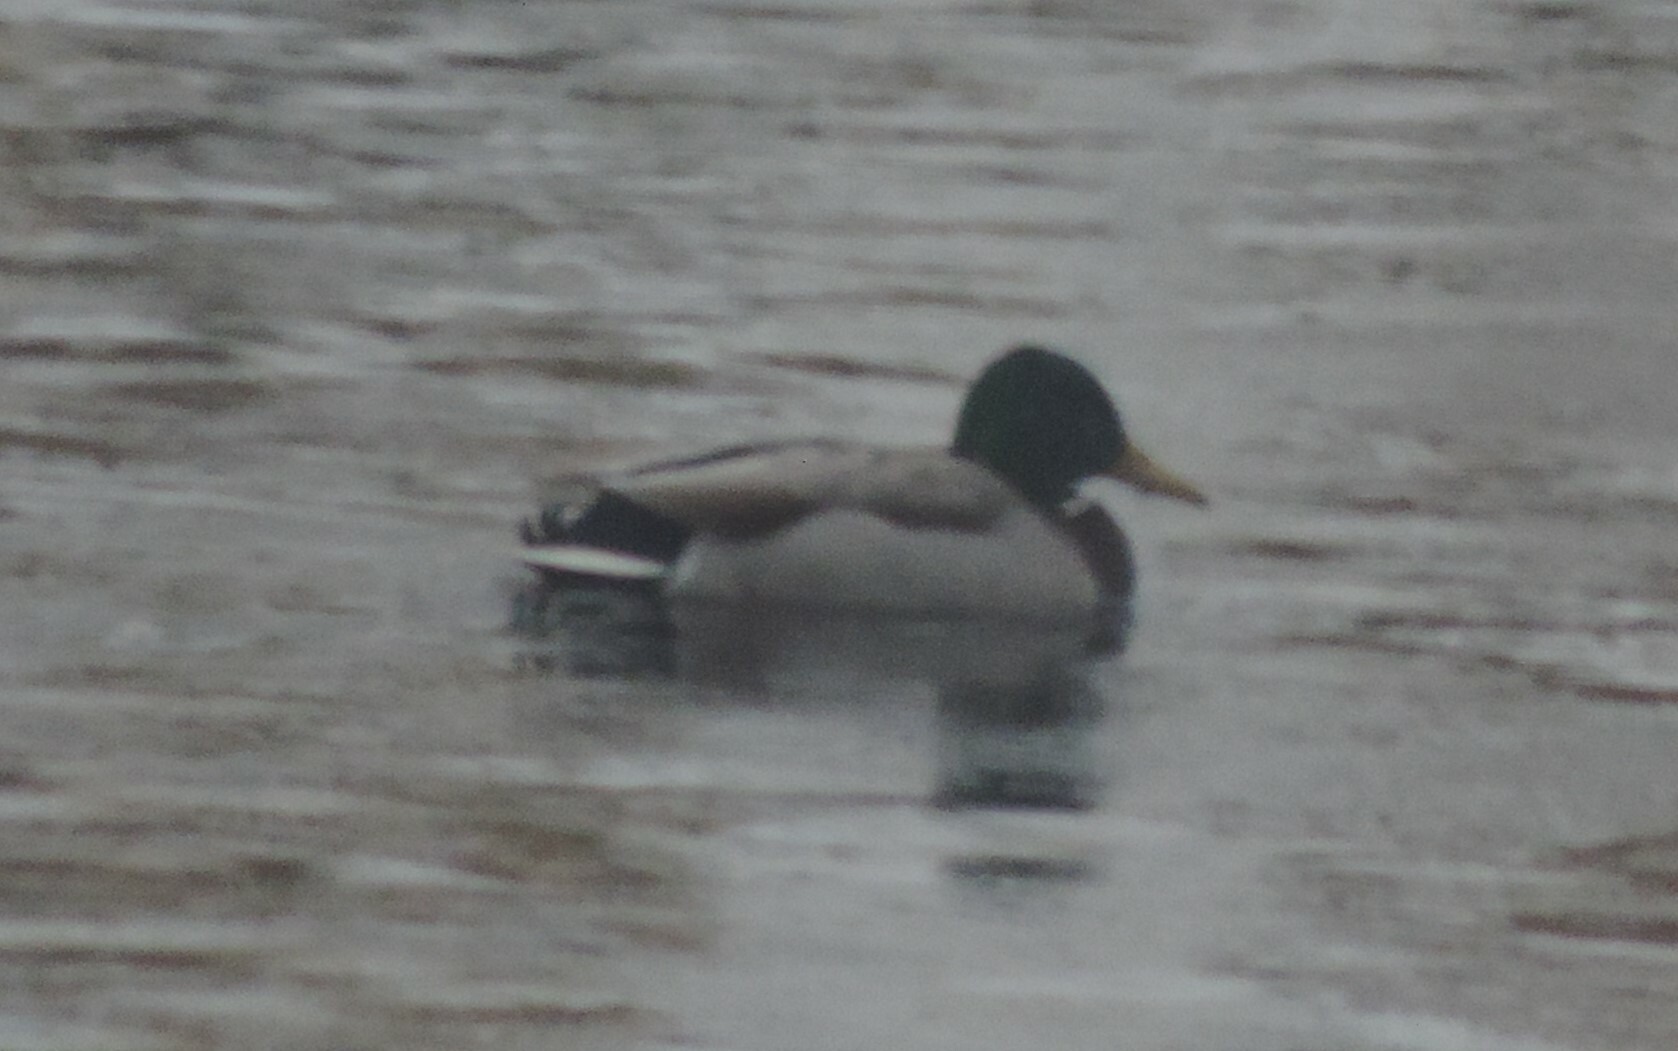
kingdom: Animalia
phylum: Chordata
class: Aves
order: Anseriformes
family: Anatidae
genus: Anas
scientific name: Anas platyrhynchos
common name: Mallard
